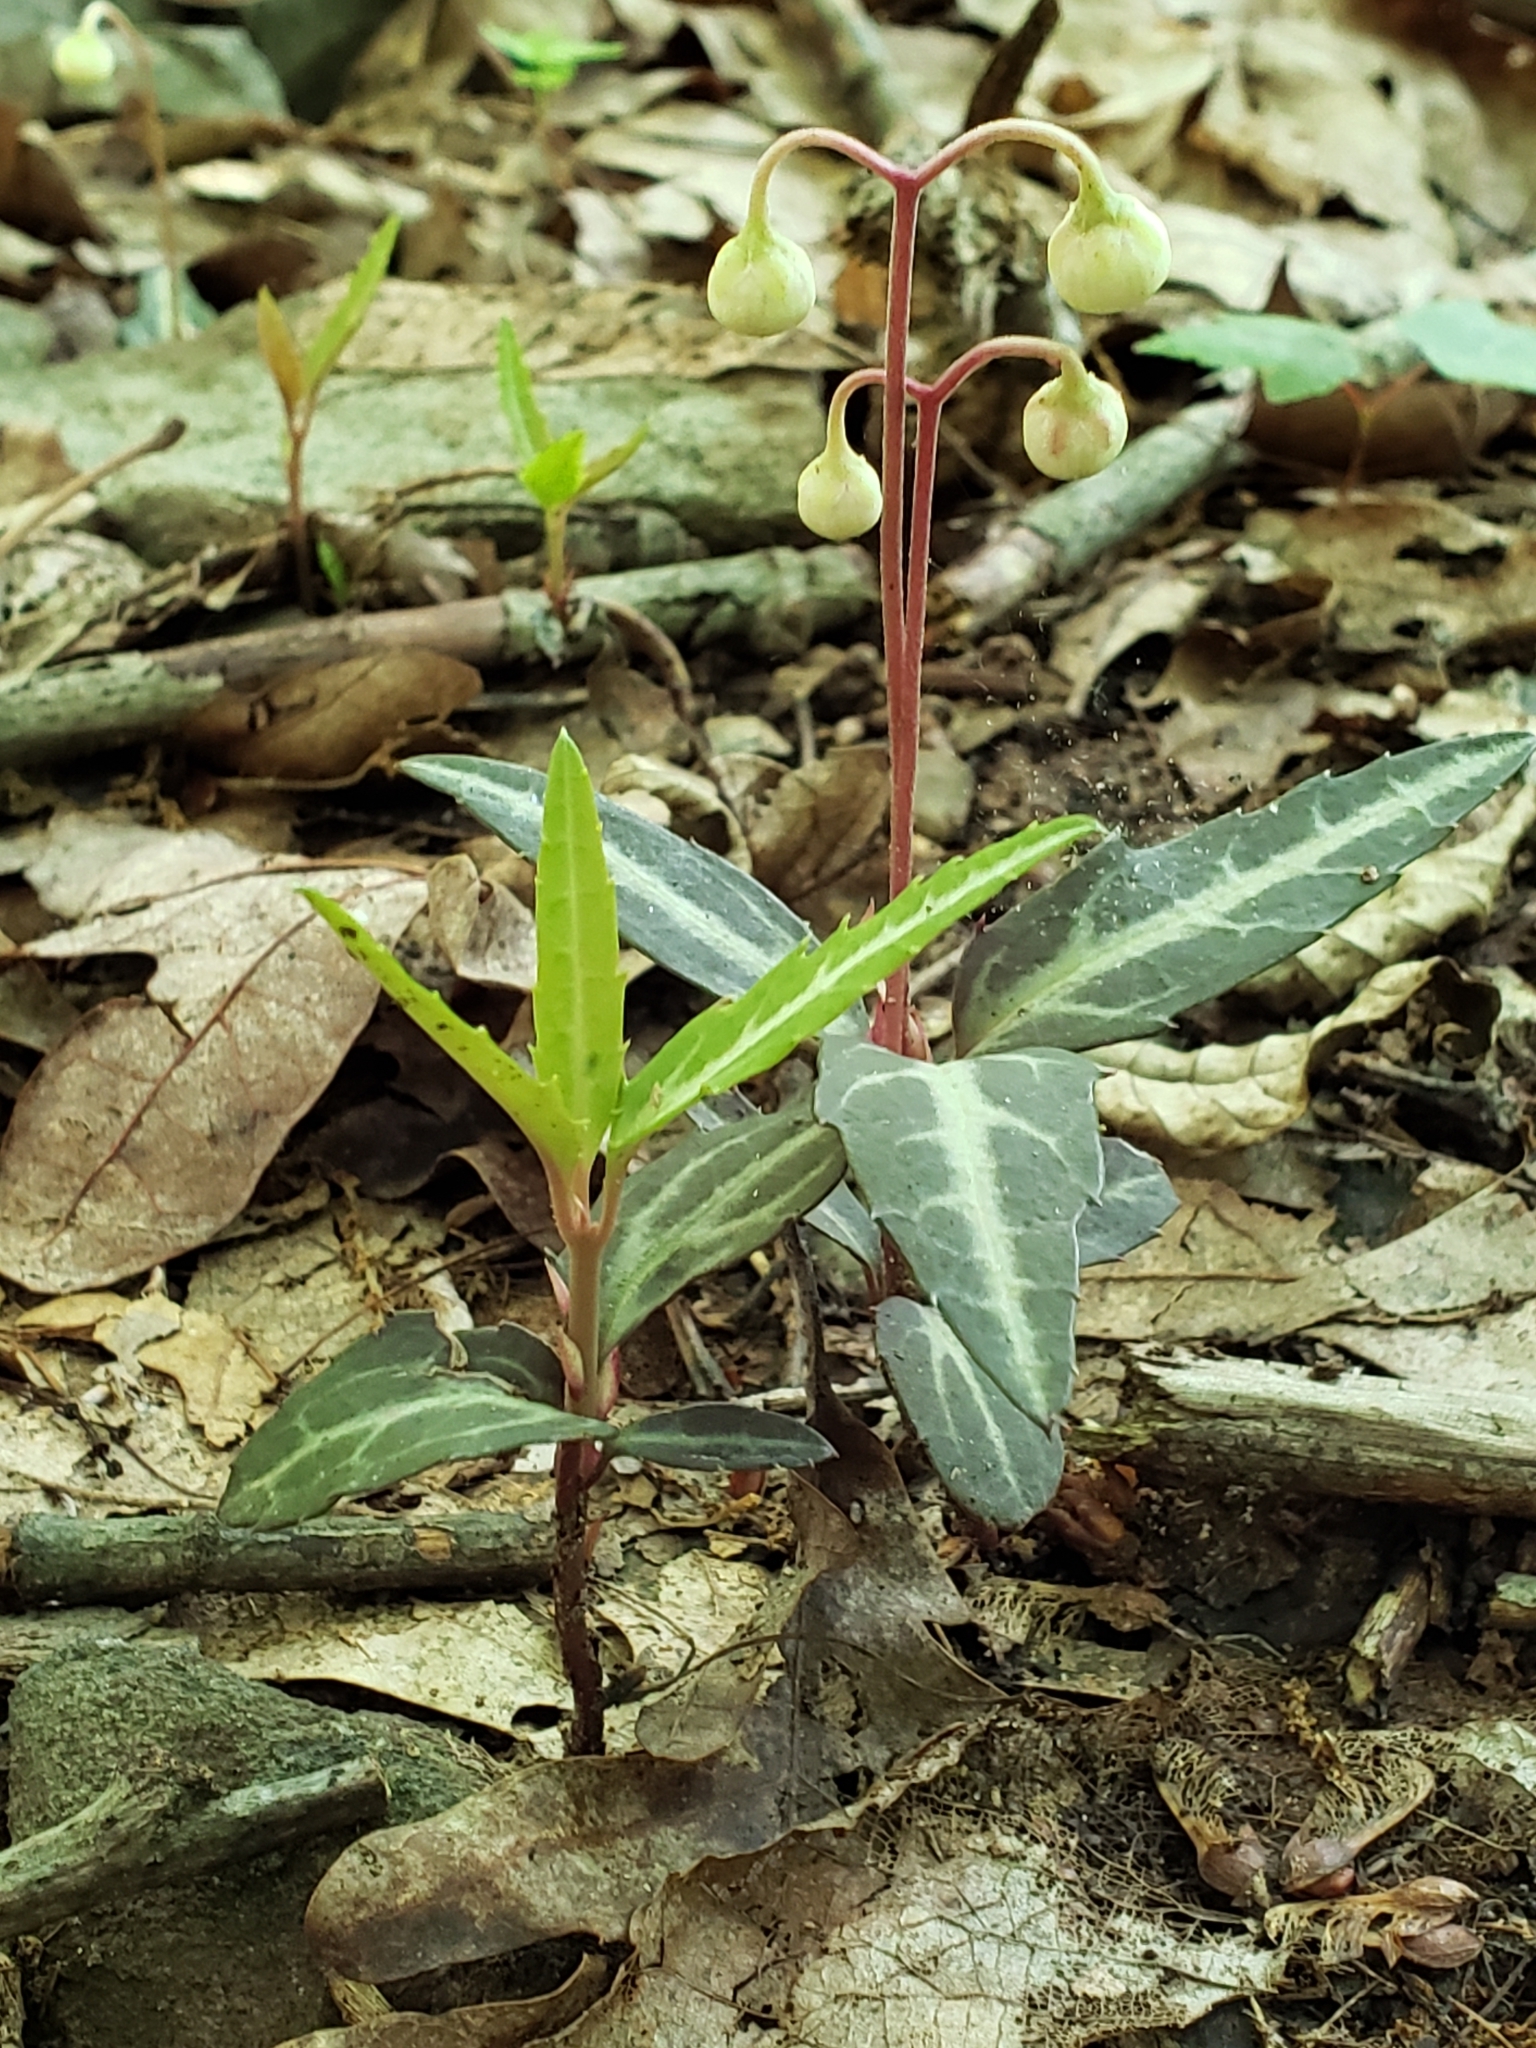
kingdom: Plantae
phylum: Tracheophyta
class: Magnoliopsida
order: Ericales
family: Ericaceae
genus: Chimaphila
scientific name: Chimaphila maculata
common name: Spotted pipsissewa
